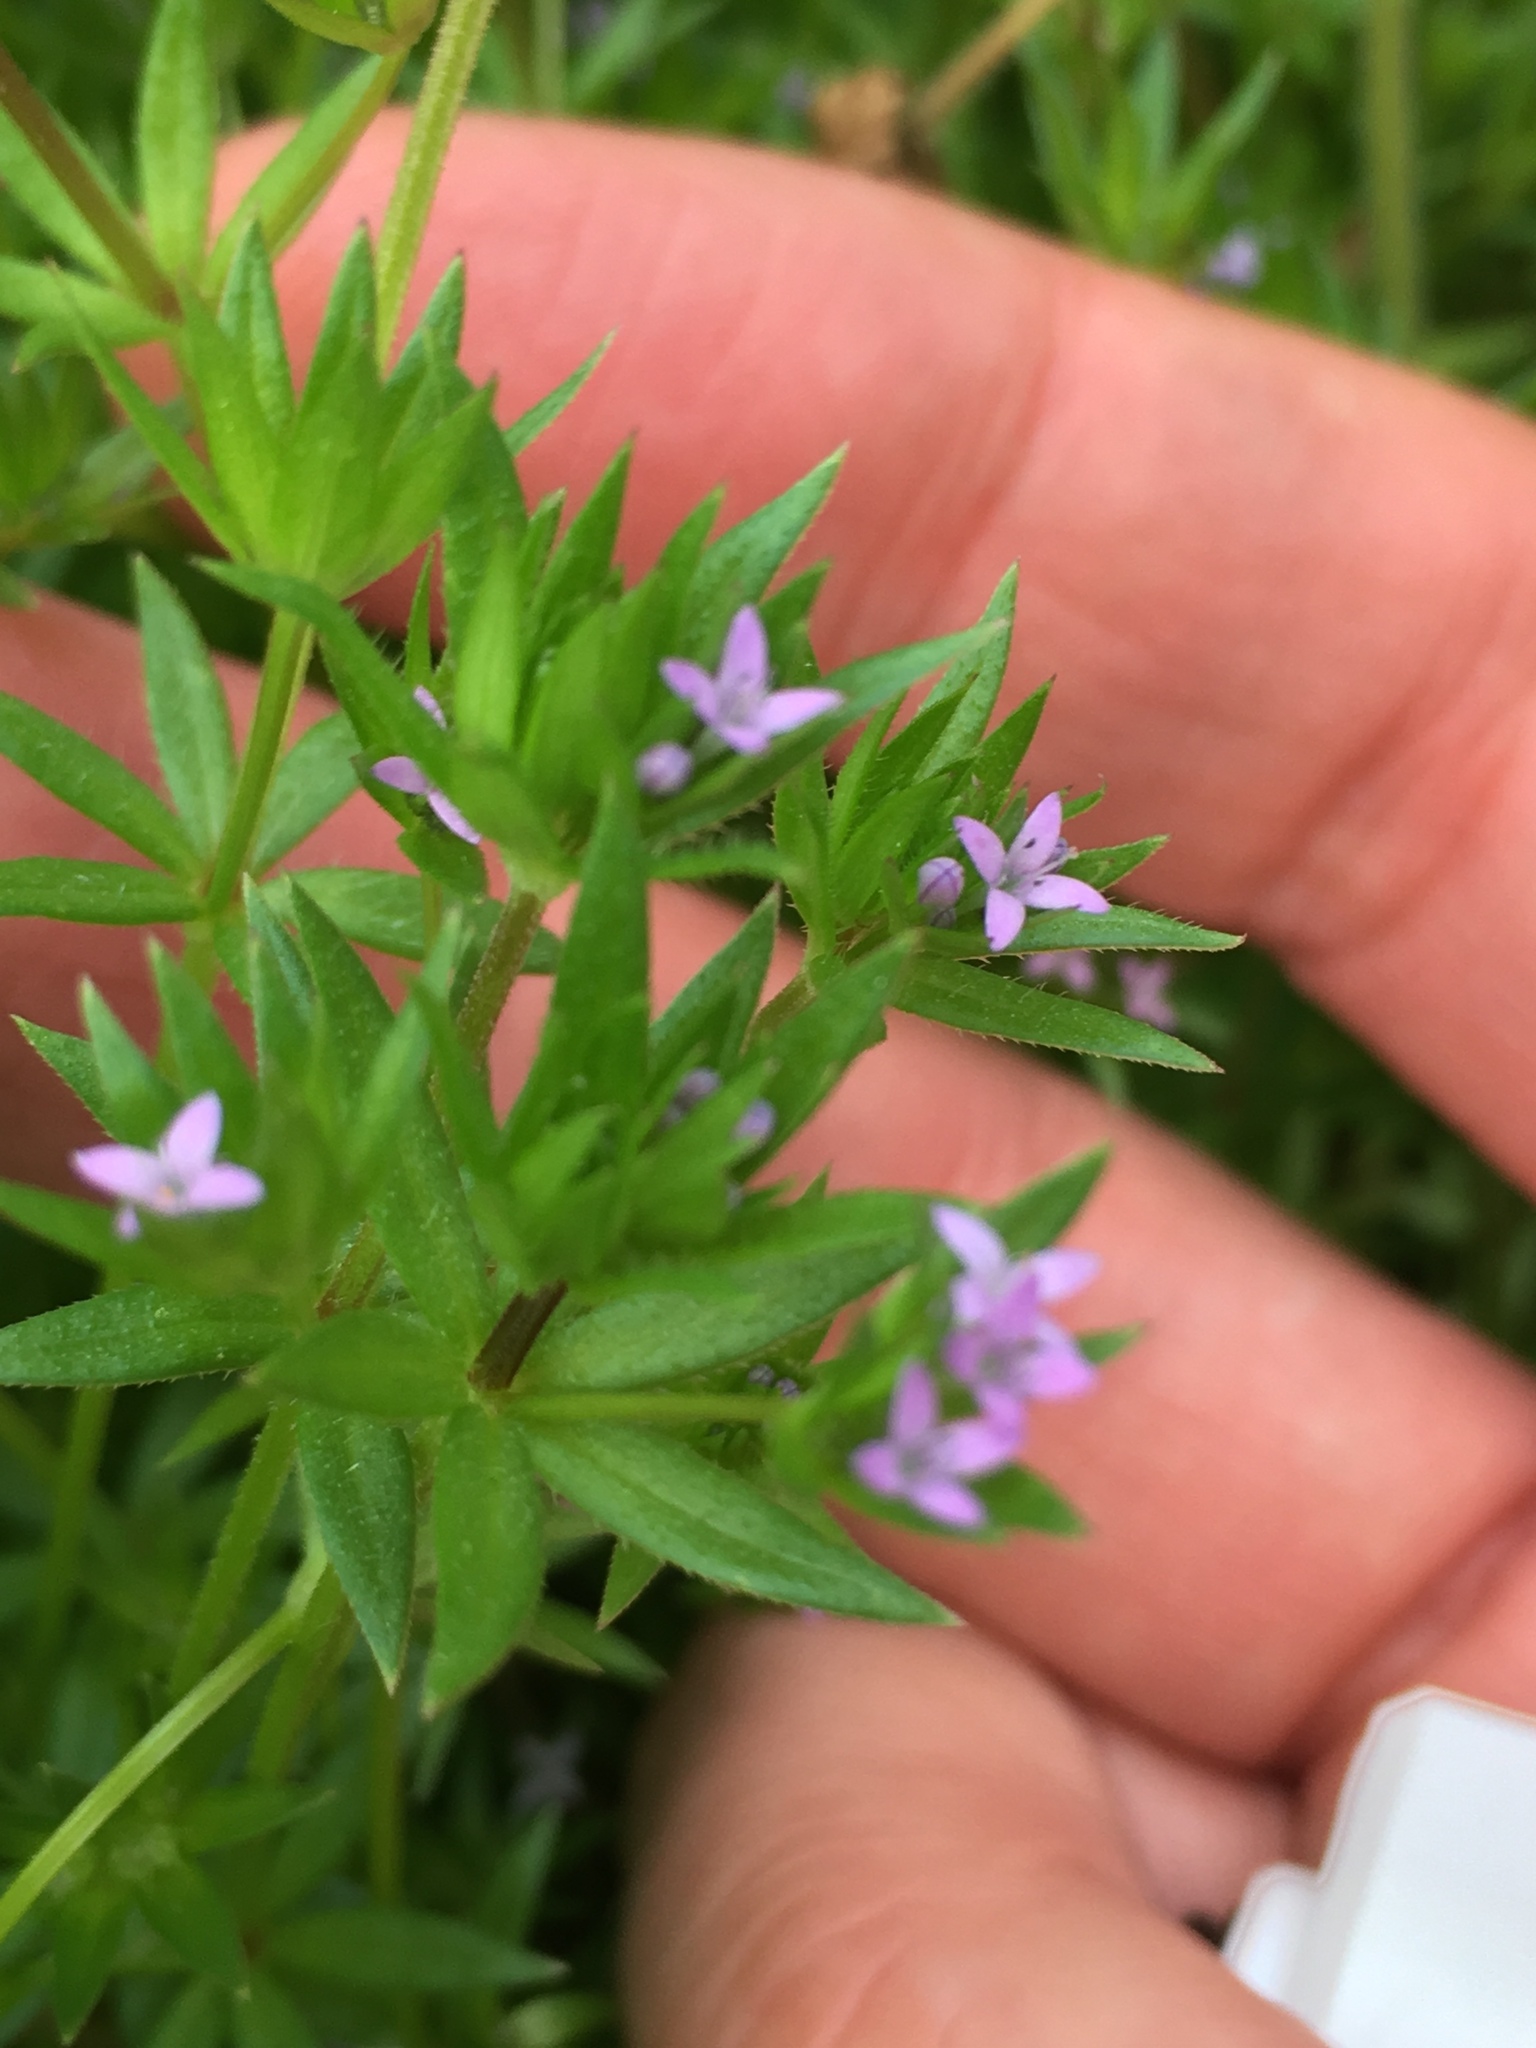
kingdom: Plantae
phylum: Tracheophyta
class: Magnoliopsida
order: Gentianales
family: Rubiaceae
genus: Sherardia
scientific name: Sherardia arvensis
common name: Field madder
